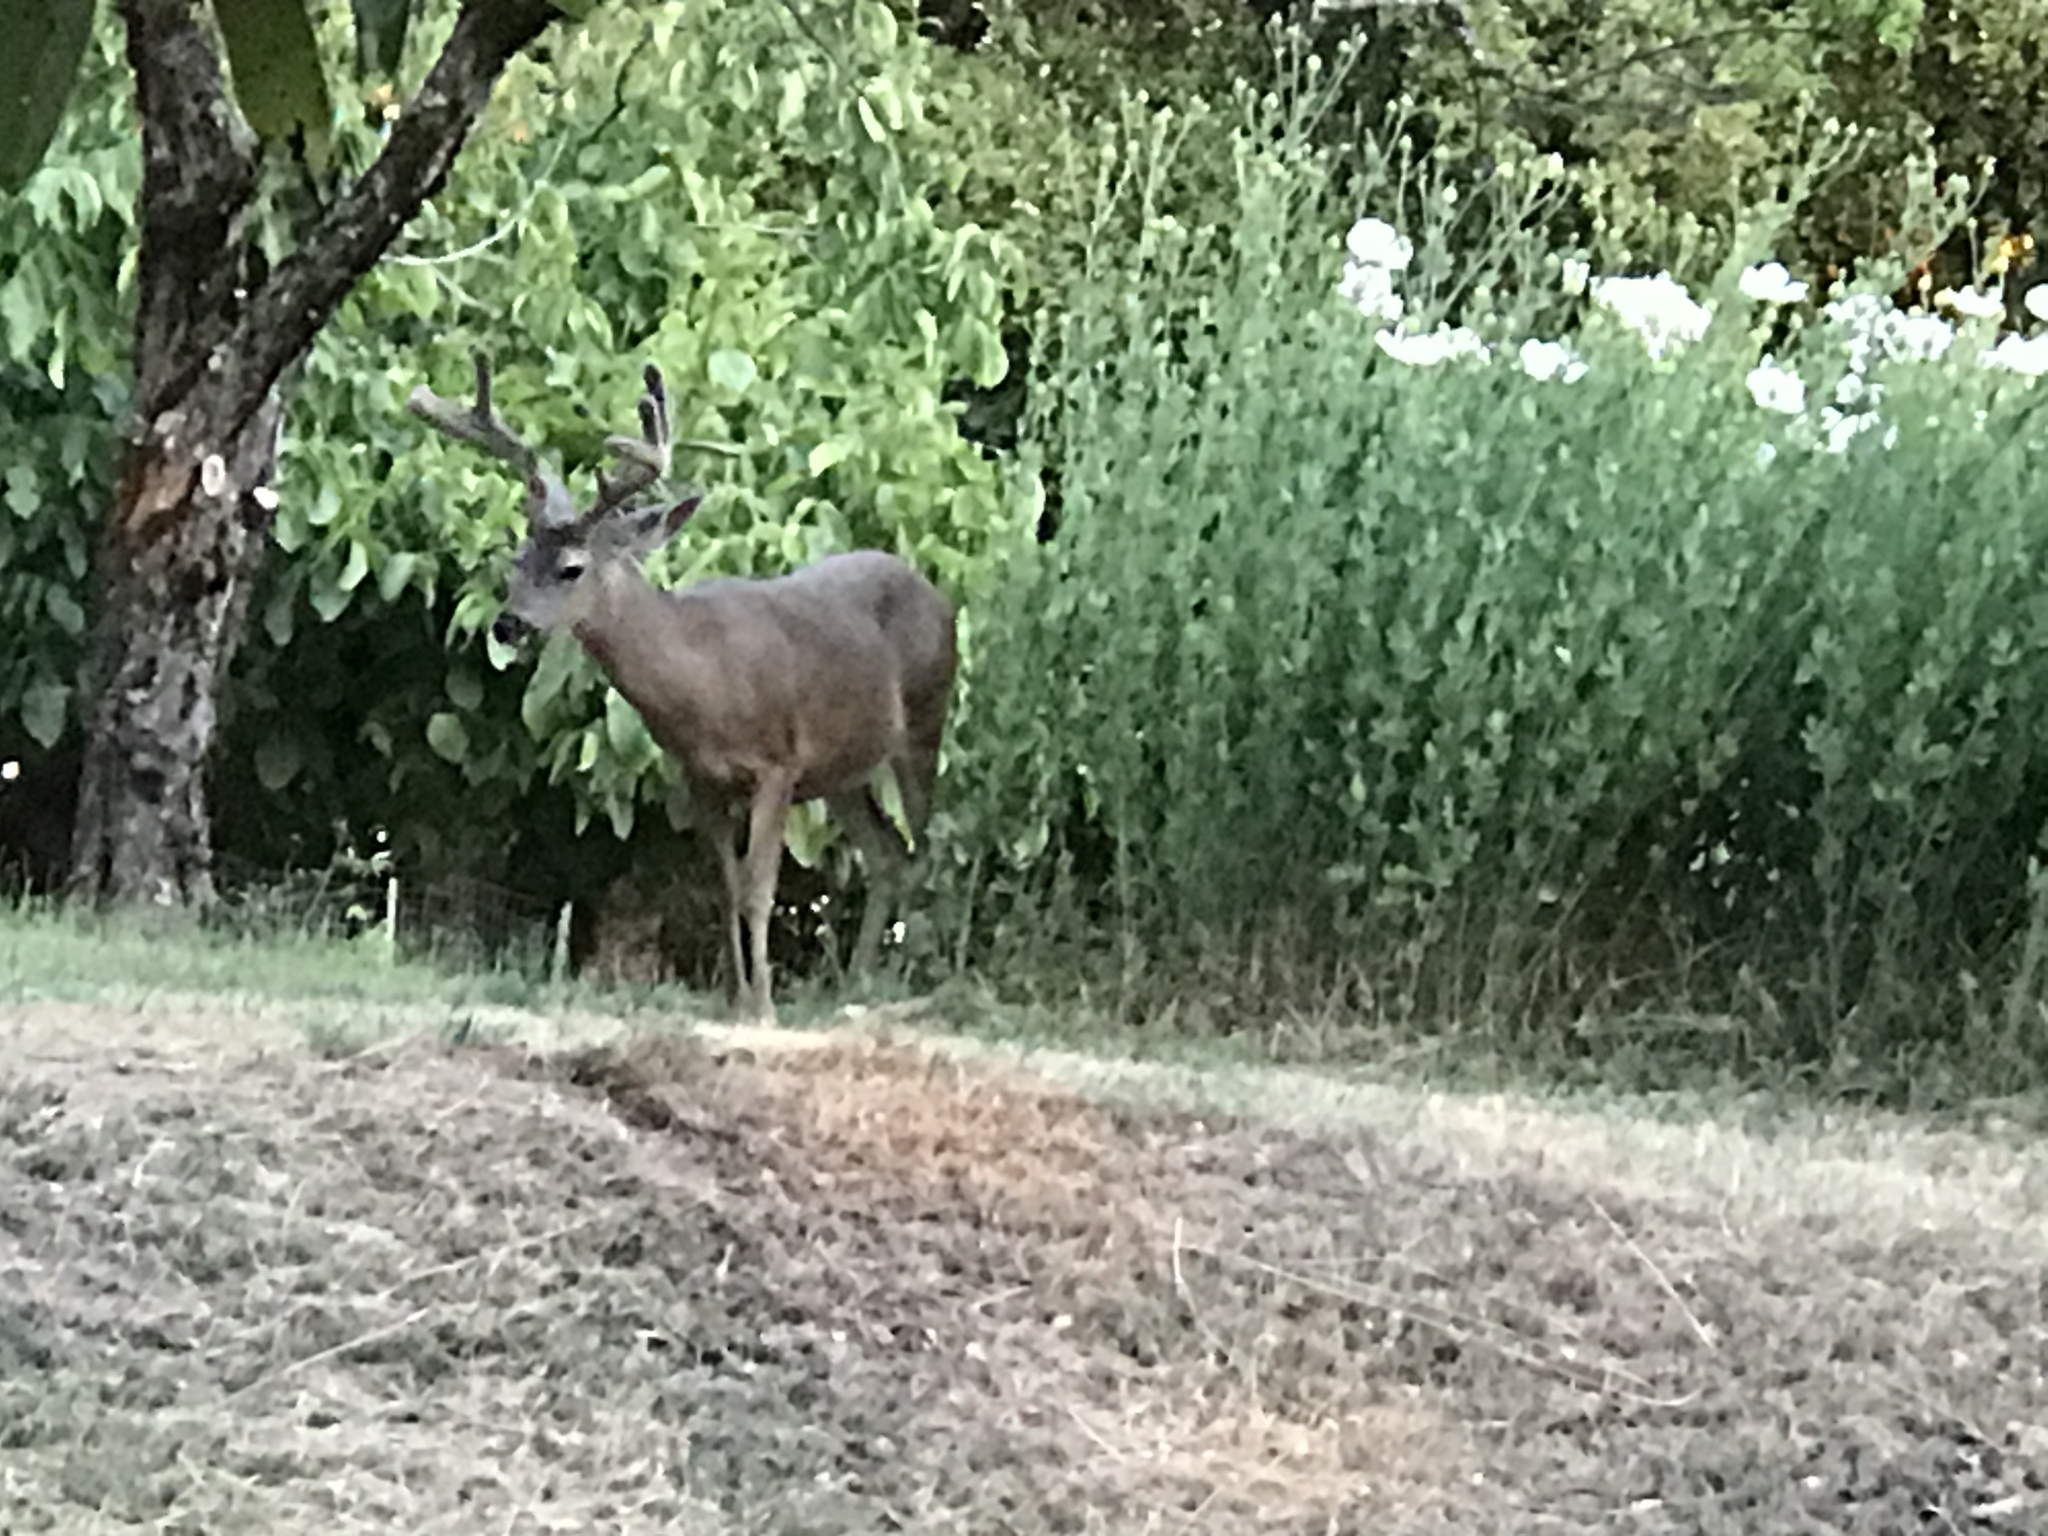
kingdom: Animalia
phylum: Chordata
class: Mammalia
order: Artiodactyla
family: Cervidae
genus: Odocoileus
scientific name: Odocoileus hemionus
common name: Mule deer
